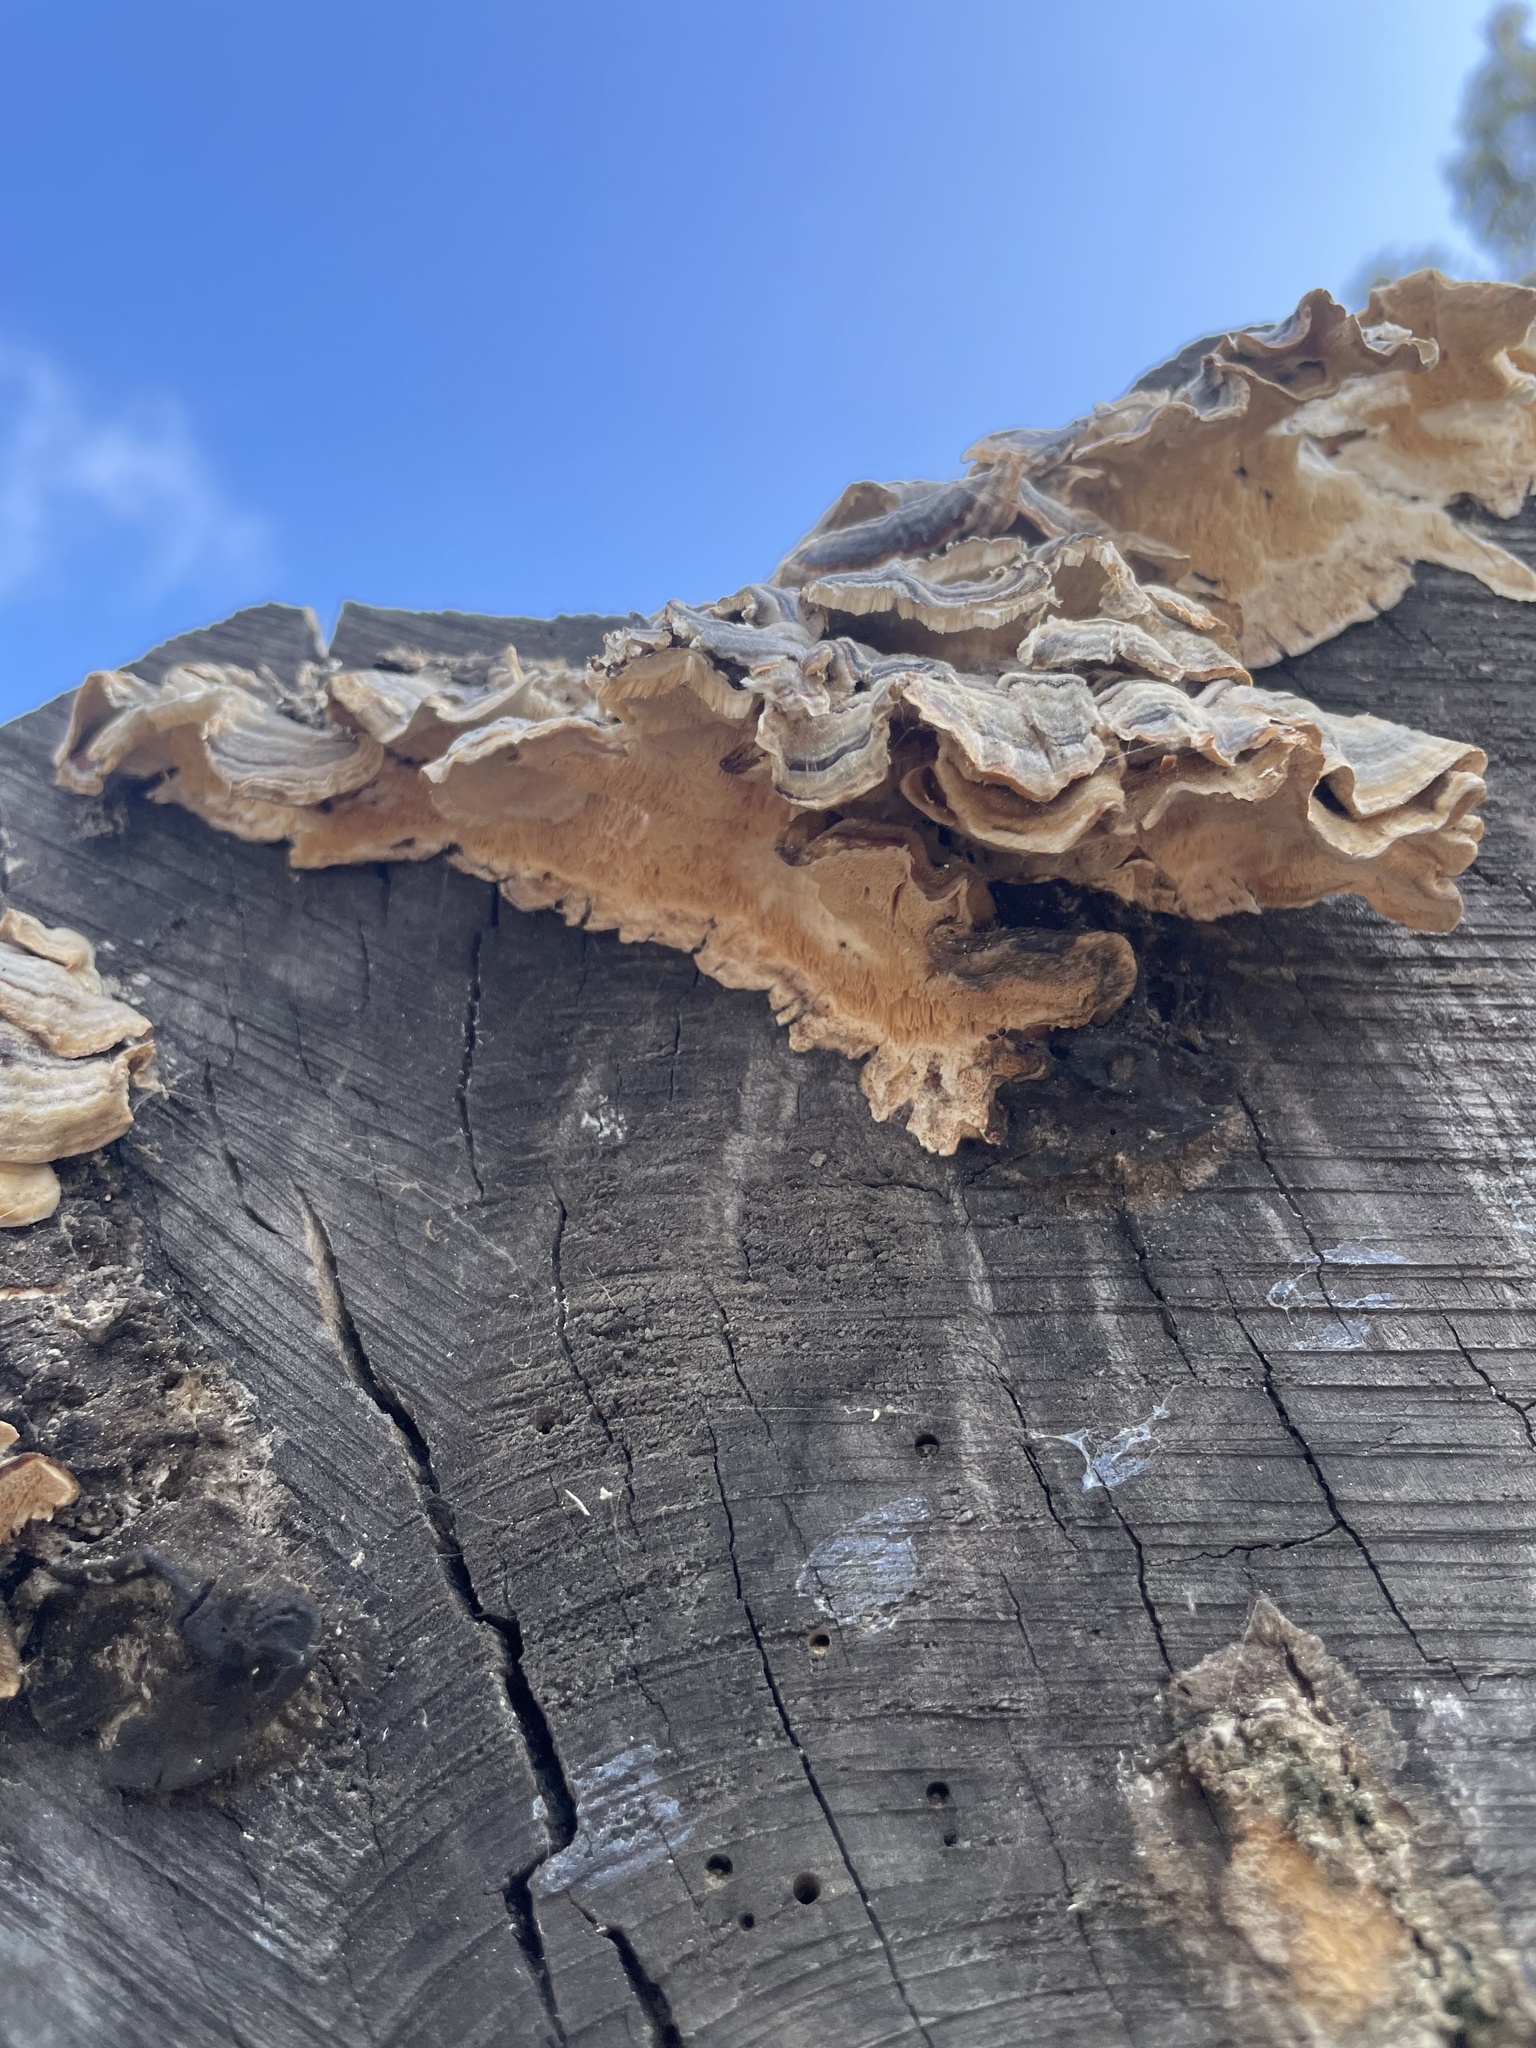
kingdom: Fungi
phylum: Basidiomycota
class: Agaricomycetes
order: Polyporales
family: Polyporaceae
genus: Trametes
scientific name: Trametes versicolor
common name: Turkeytail
